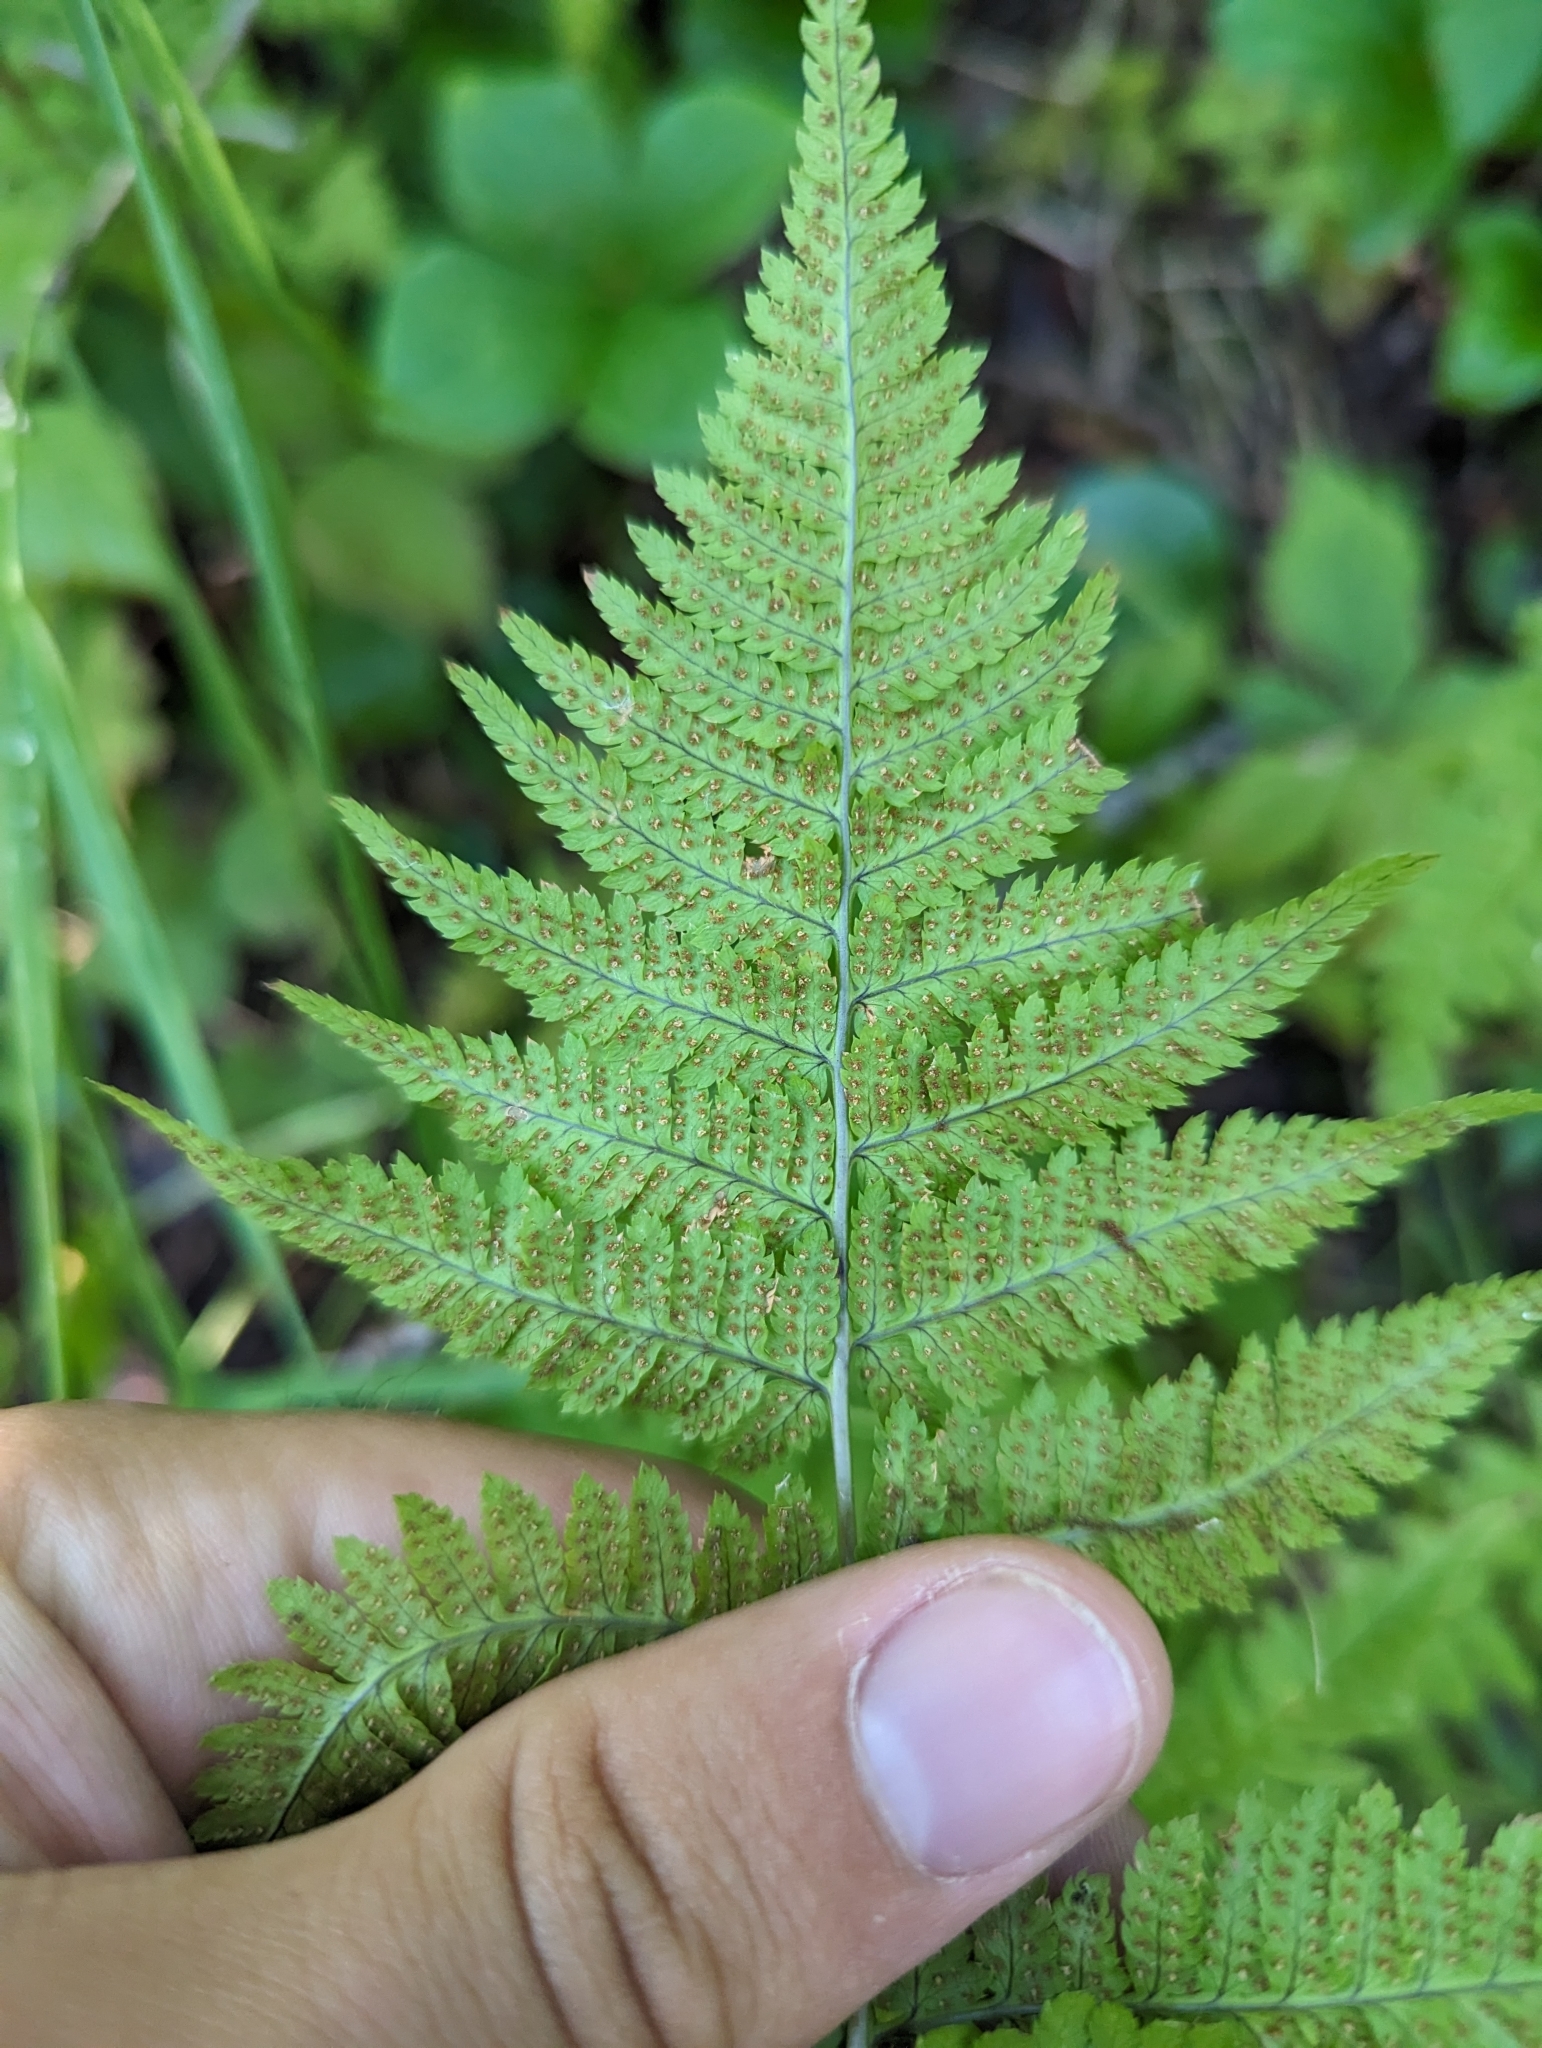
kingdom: Plantae
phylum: Tracheophyta
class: Polypodiopsida
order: Polypodiales
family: Dryopteridaceae
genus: Dryopteris
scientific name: Dryopteris carthusiana
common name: Narrow buckler-fern
